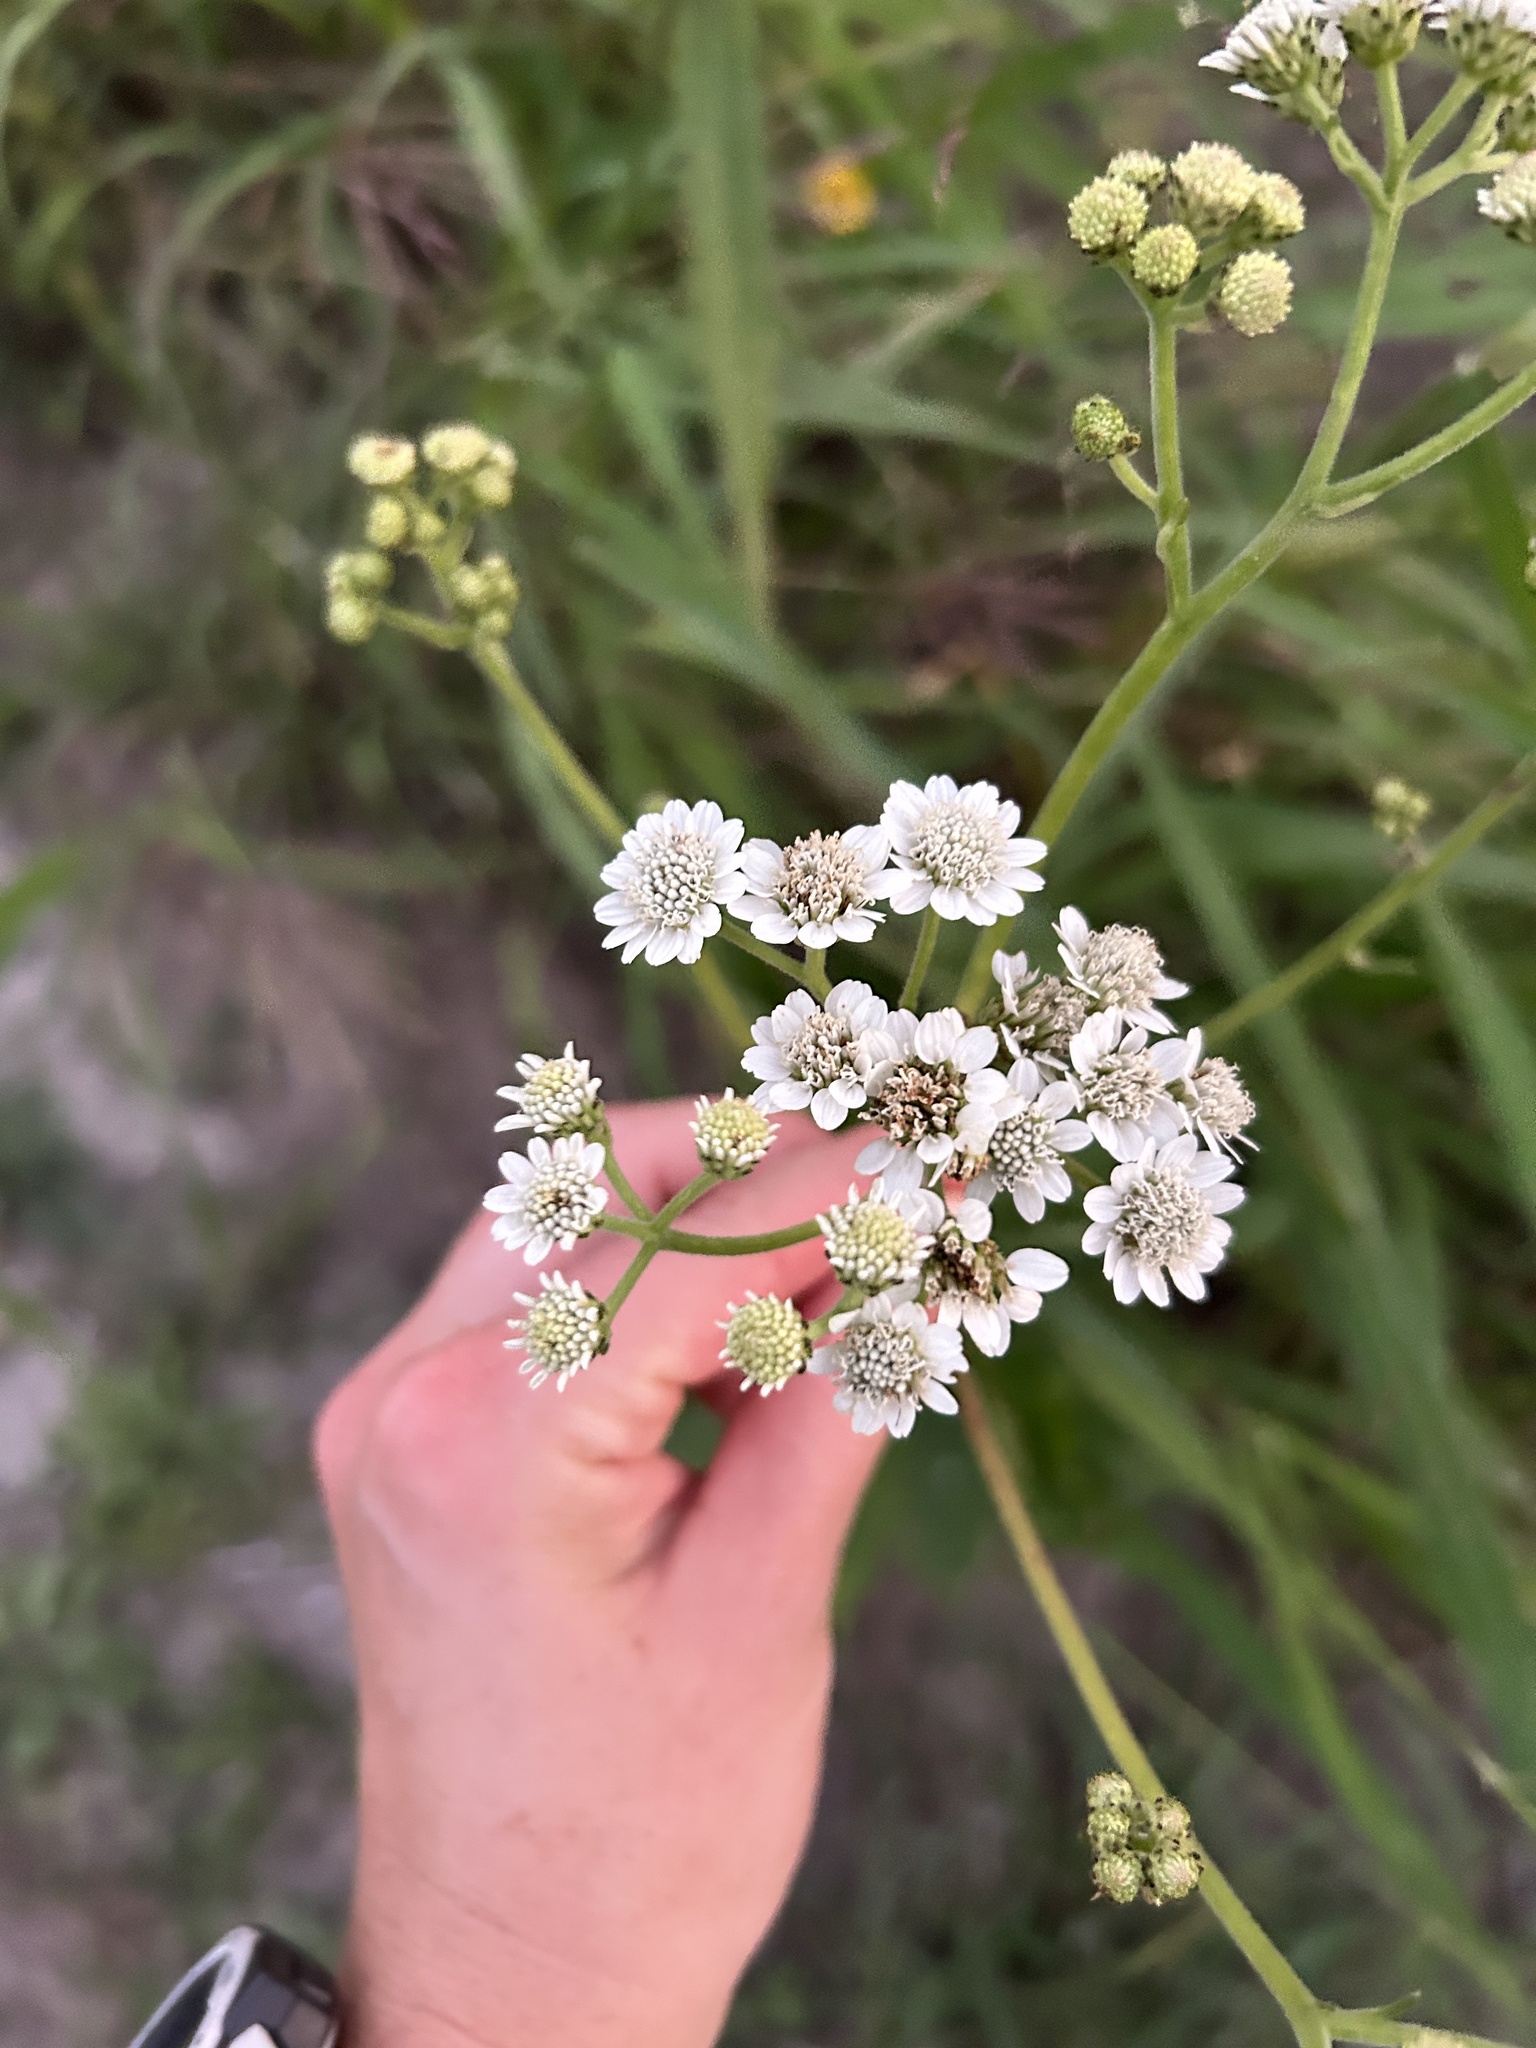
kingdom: Plantae
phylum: Tracheophyta
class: Magnoliopsida
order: Asterales
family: Asteraceae
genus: Verbesina
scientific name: Verbesina microptera
